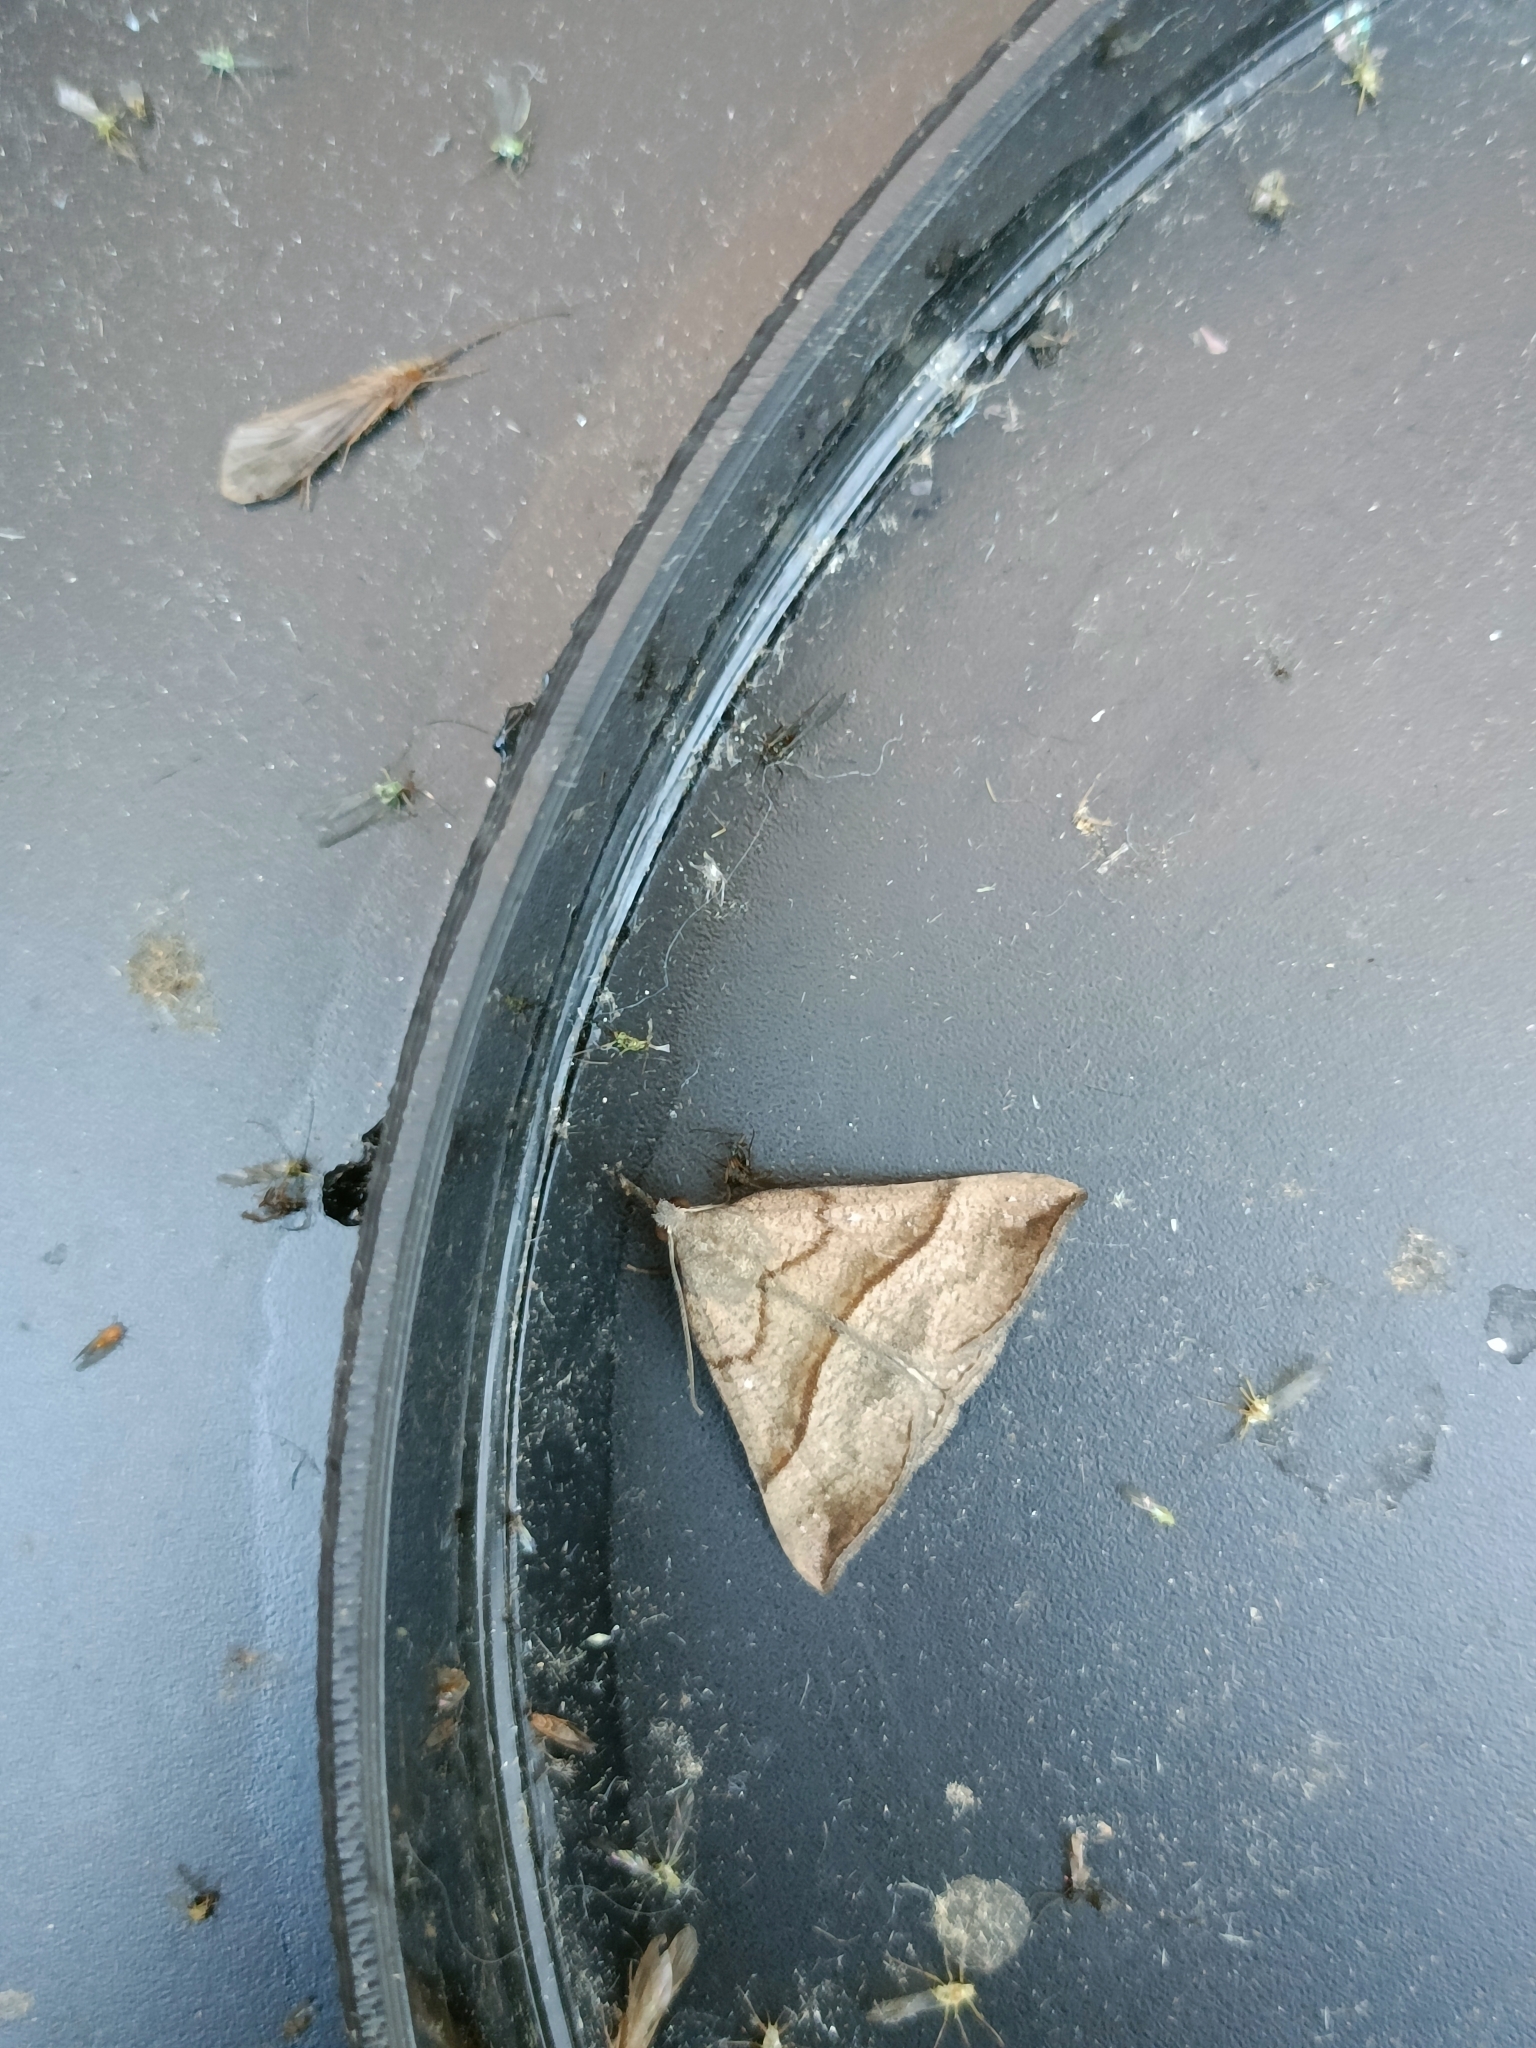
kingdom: Animalia
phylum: Arthropoda
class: Insecta
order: Lepidoptera
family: Erebidae
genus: Hypena
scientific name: Hypena proboscidalis
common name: Snout
